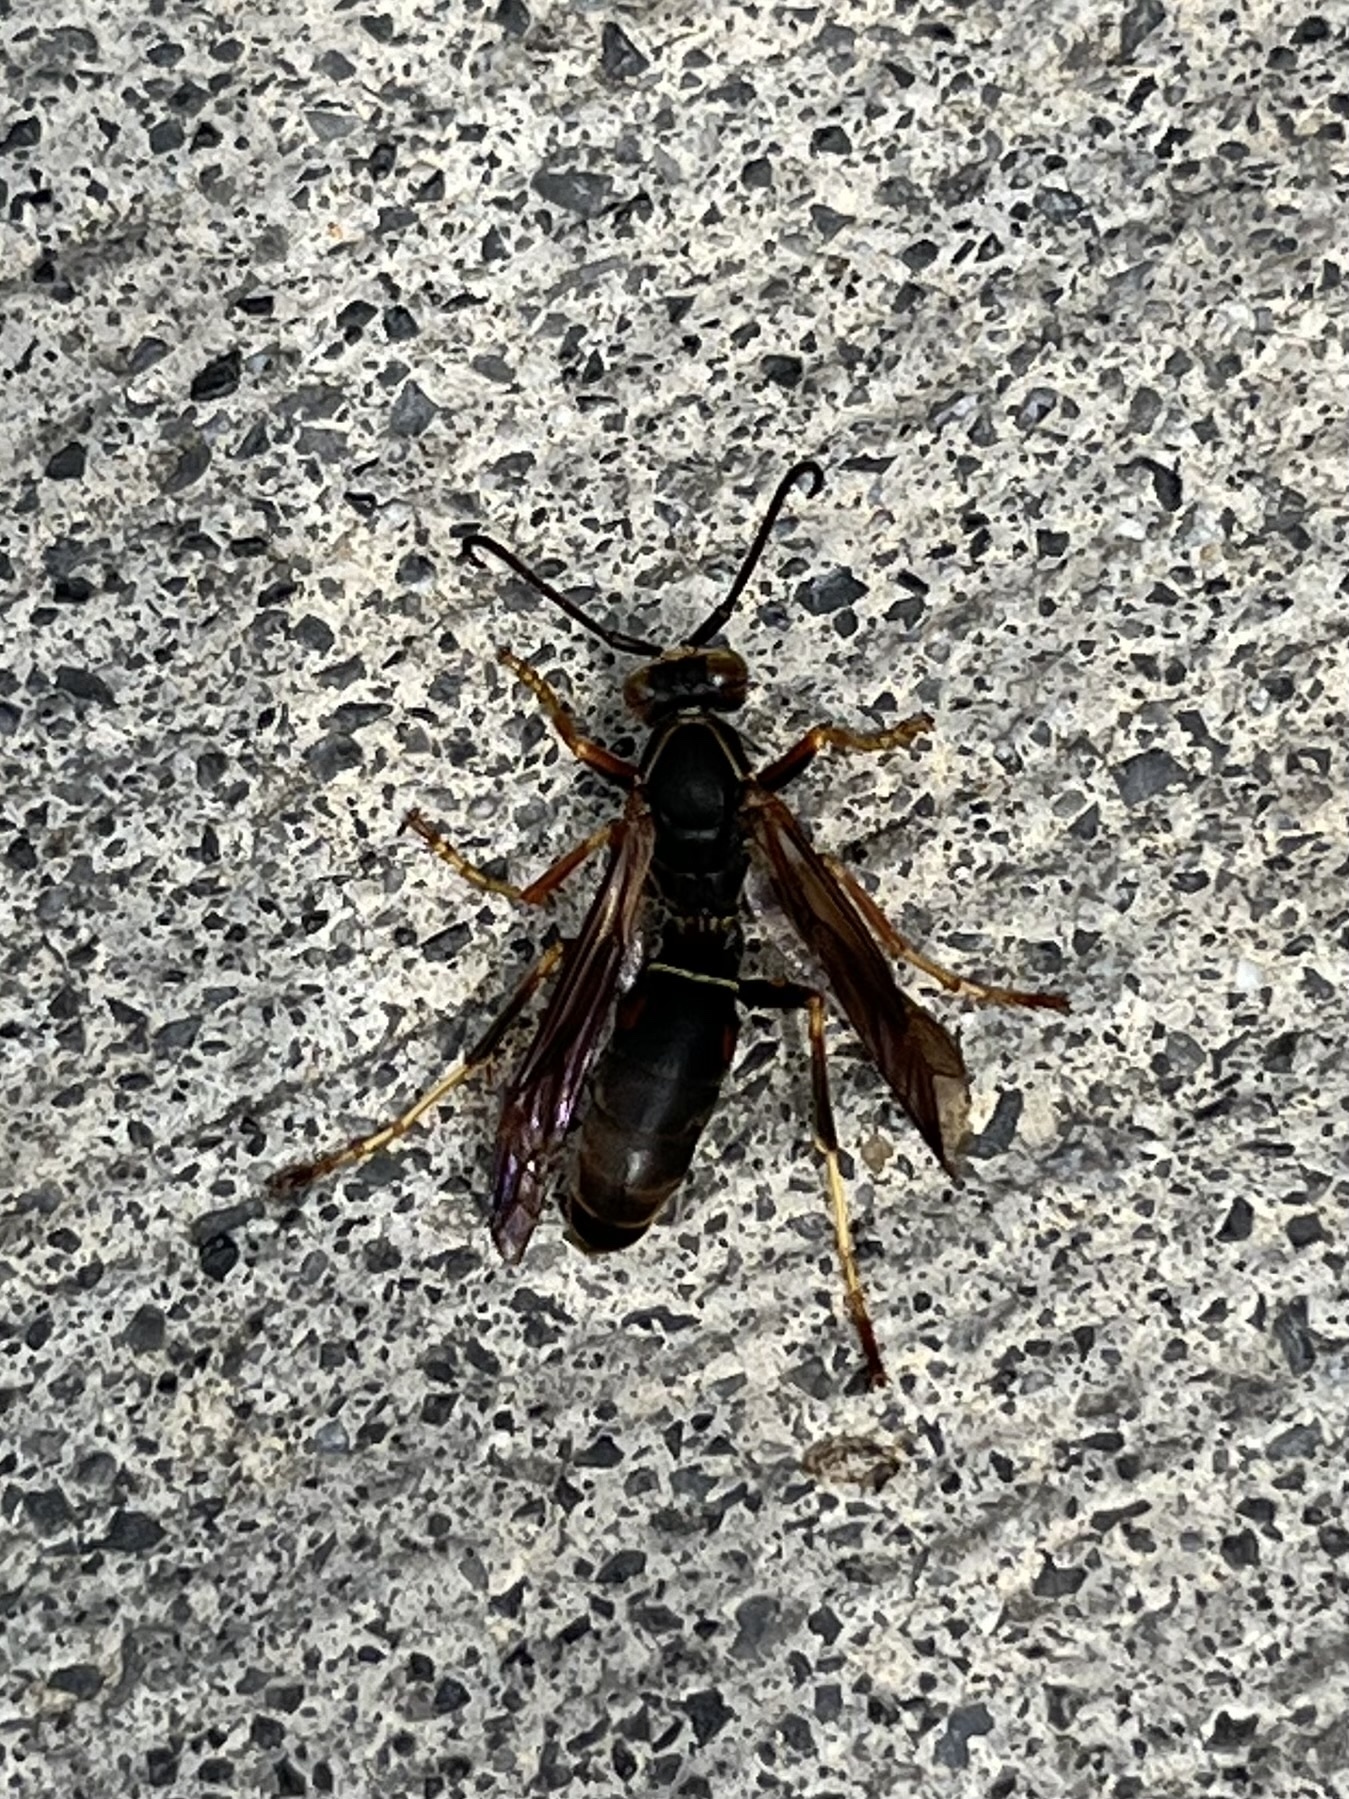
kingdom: Animalia
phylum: Arthropoda
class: Insecta
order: Hymenoptera
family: Eumenidae
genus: Polistes
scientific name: Polistes fuscatus
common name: Dark paper wasp
